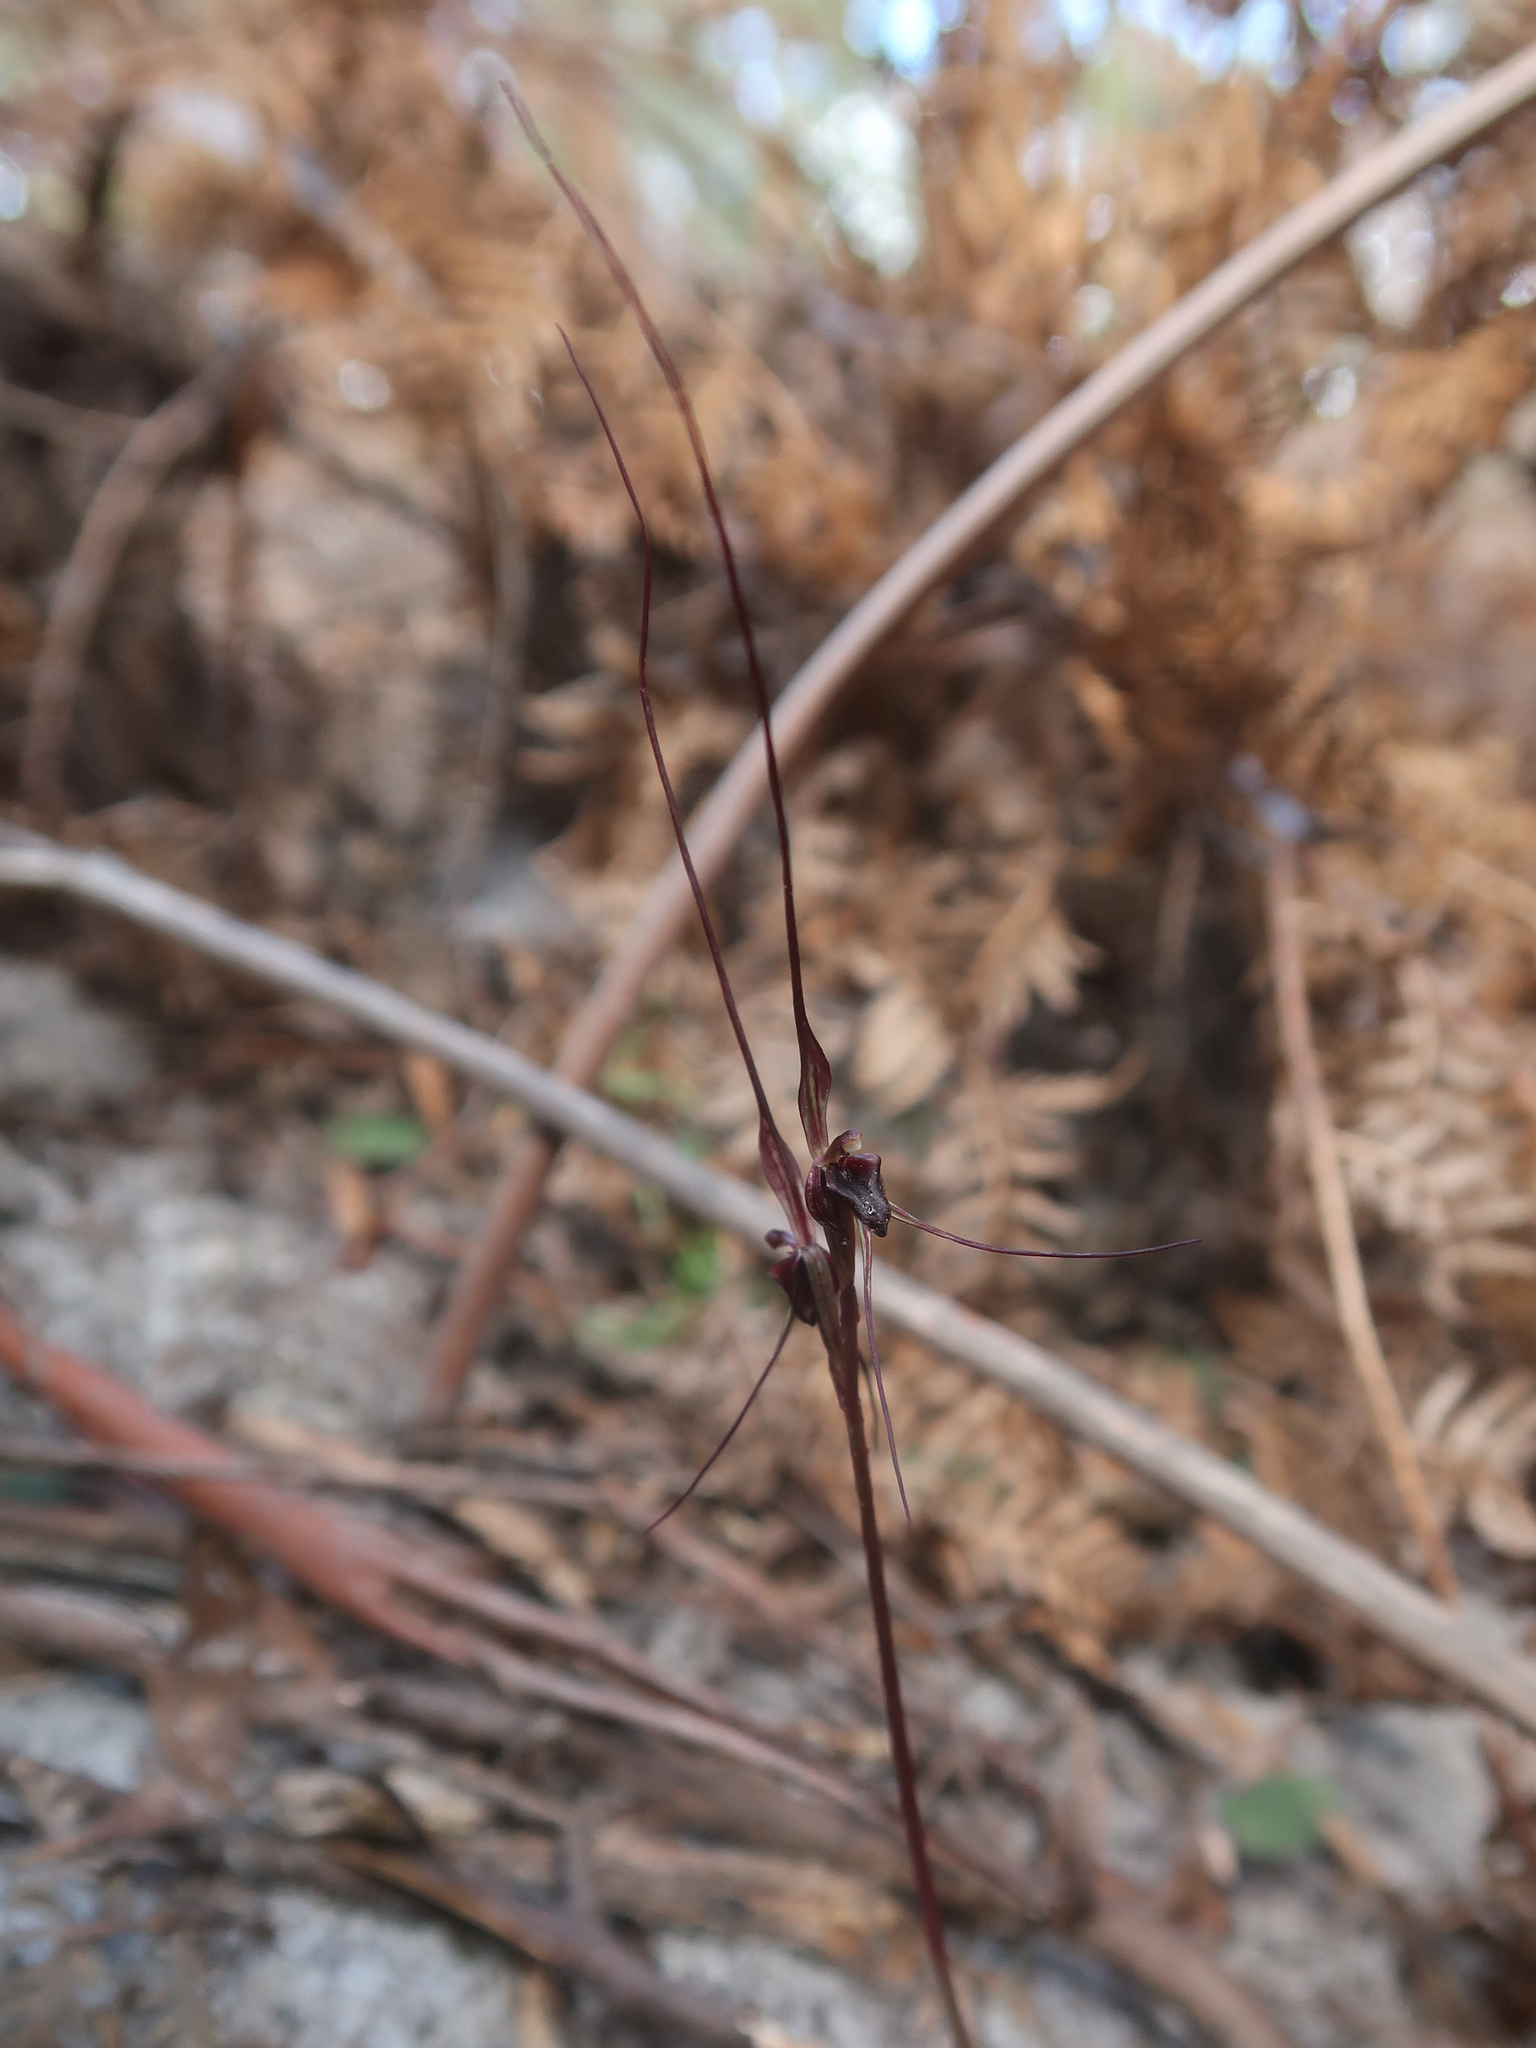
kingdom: Plantae
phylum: Tracheophyta
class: Liliopsida
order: Asparagales
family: Orchidaceae
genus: Acianthus
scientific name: Acianthus caudatus
